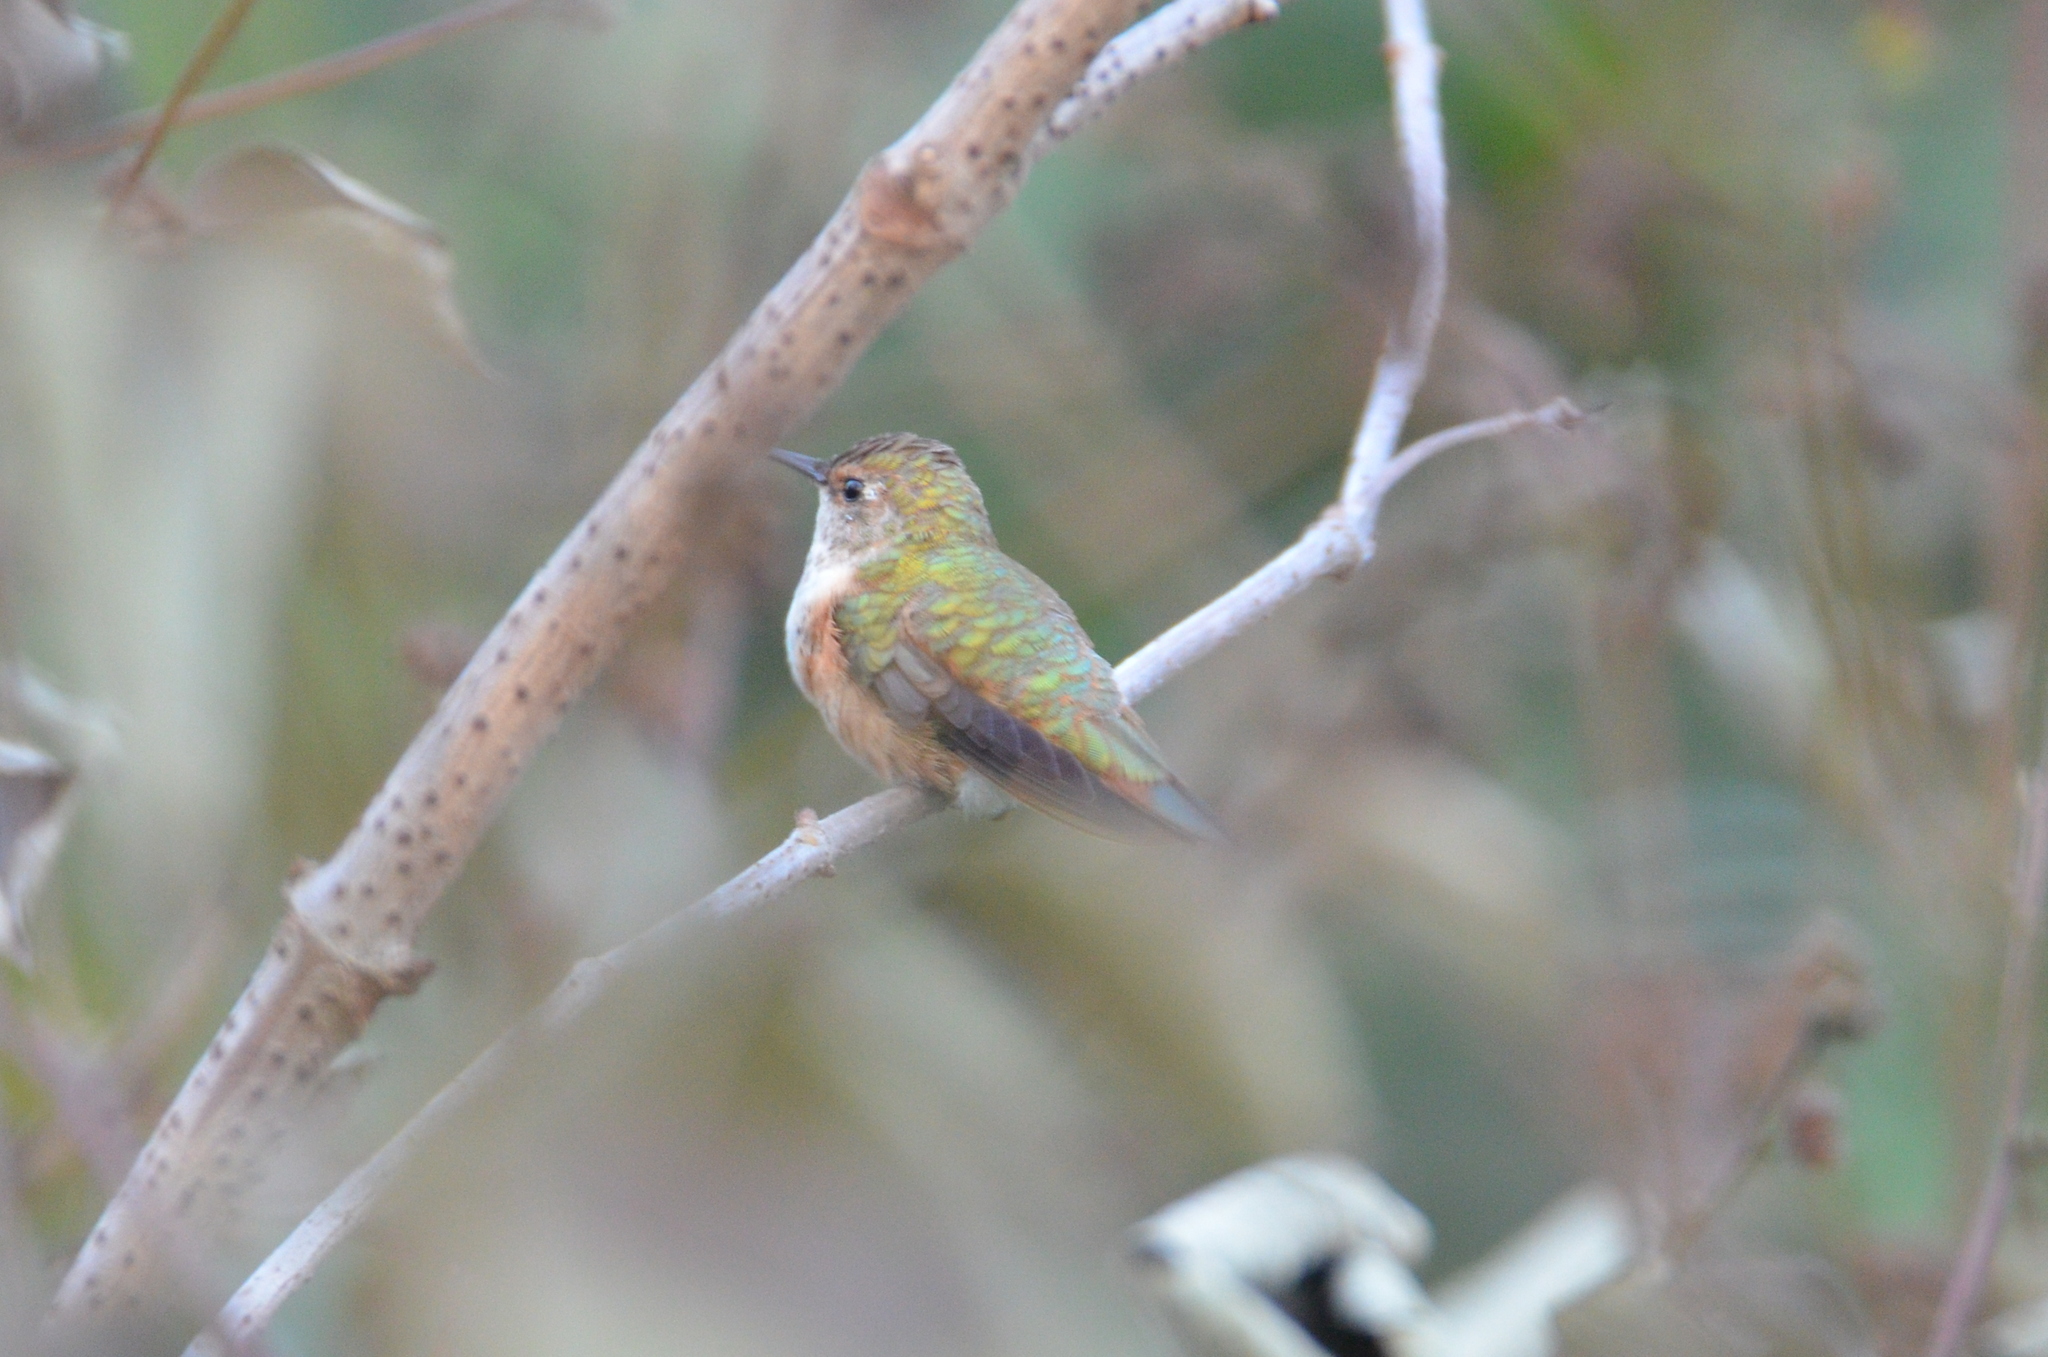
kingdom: Animalia
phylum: Chordata
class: Aves
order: Apodiformes
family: Trochilidae
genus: Selasphorus
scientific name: Selasphorus
